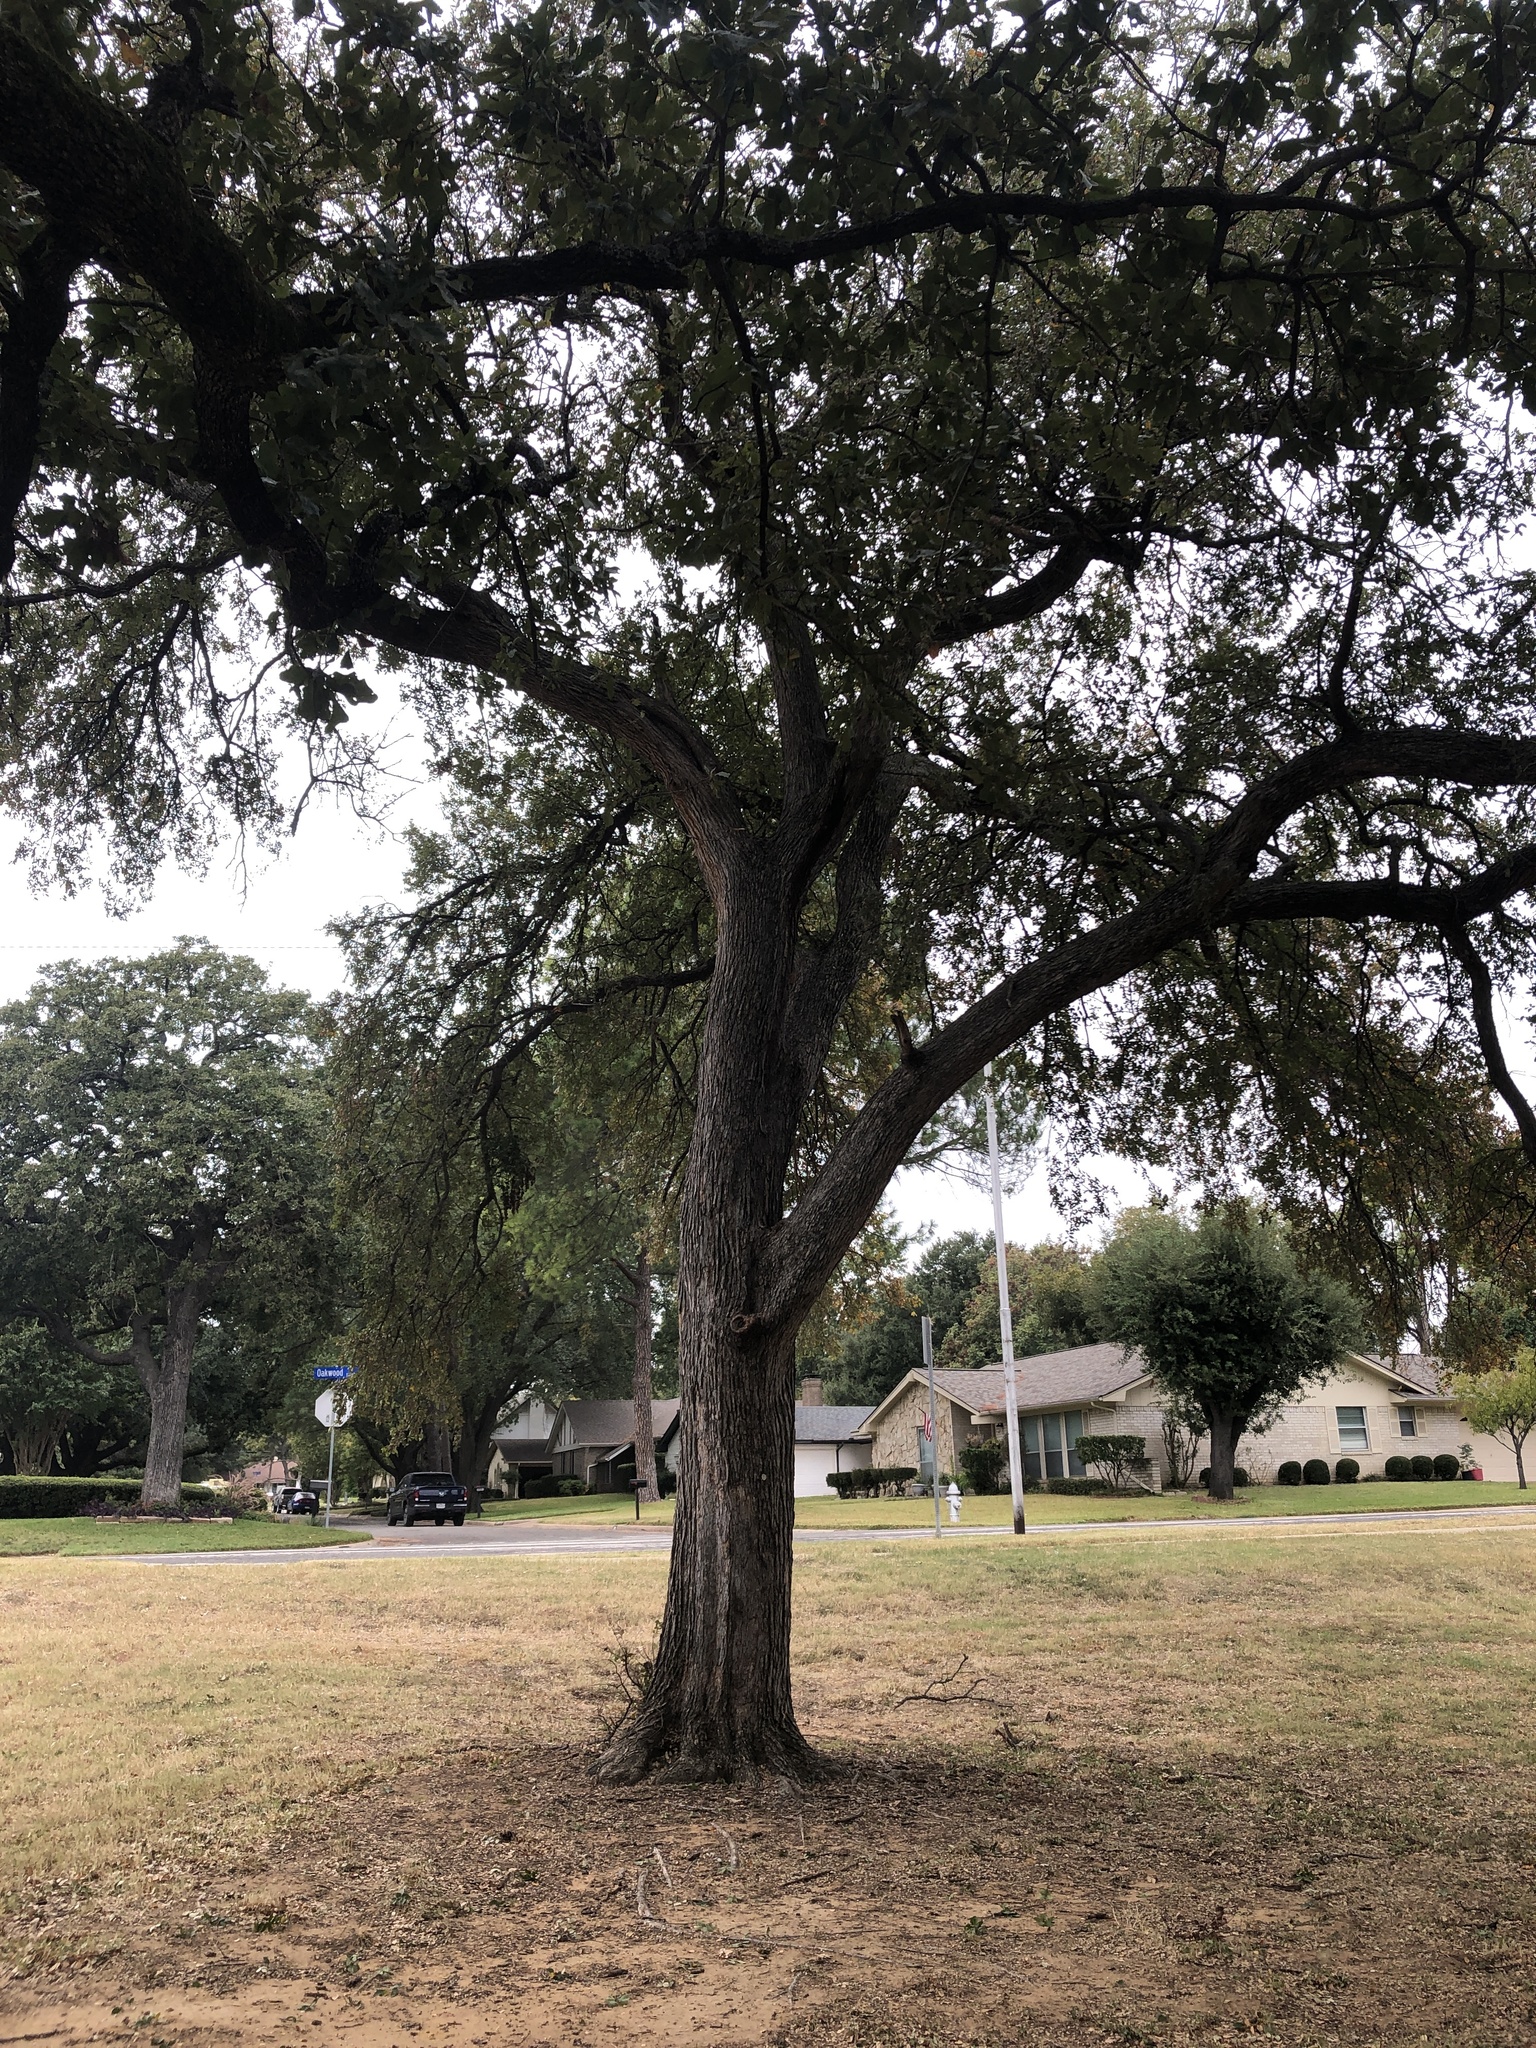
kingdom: Plantae
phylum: Tracheophyta
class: Magnoliopsida
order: Rosales
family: Ulmaceae
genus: Ulmus
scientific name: Ulmus crassifolia
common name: Basket elm
